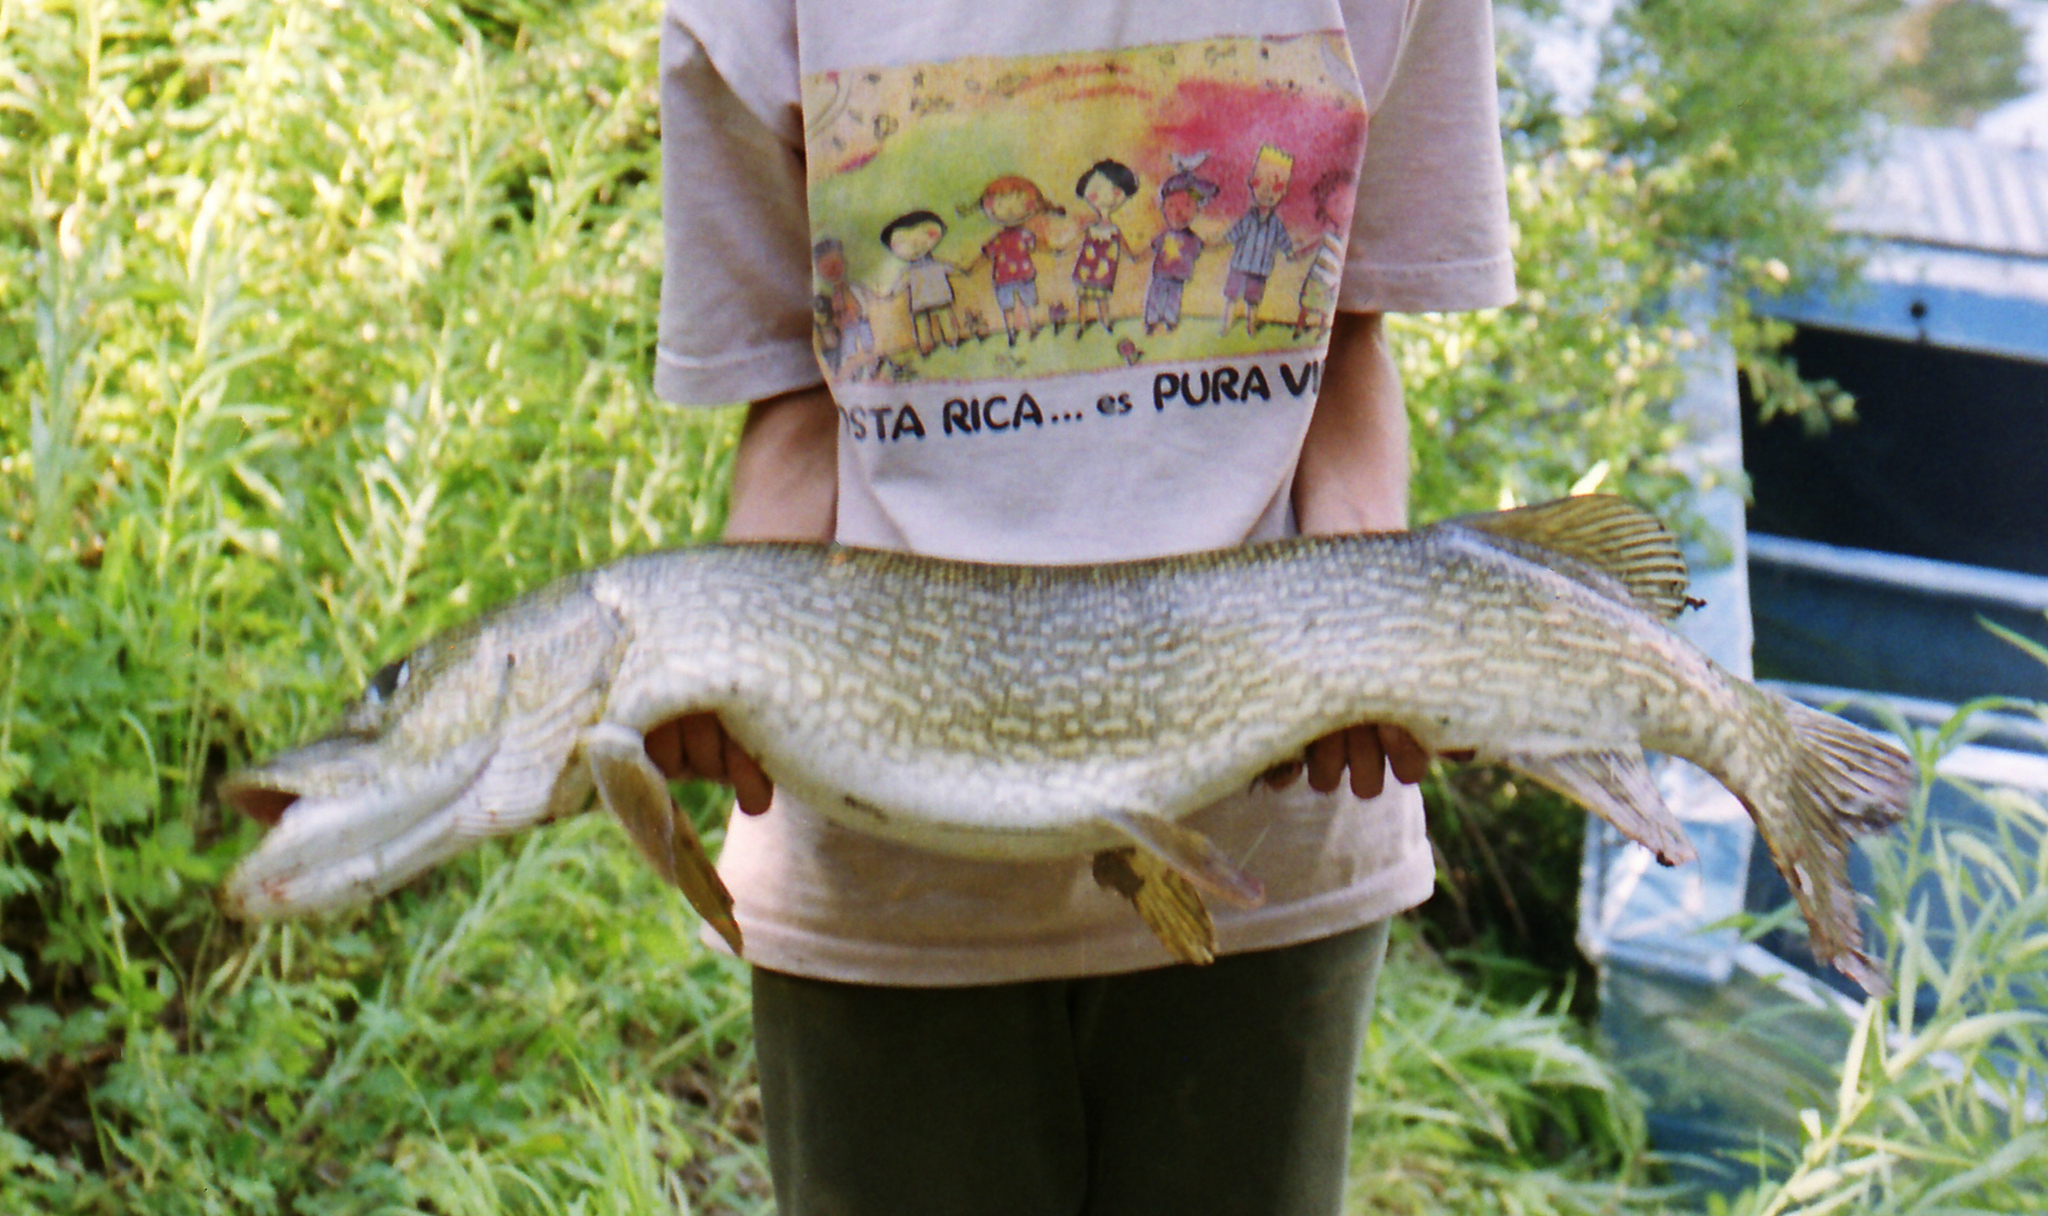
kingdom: Animalia
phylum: Chordata
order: Esociformes
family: Esocidae
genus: Esox
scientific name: Esox lucius
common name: Northern pike
